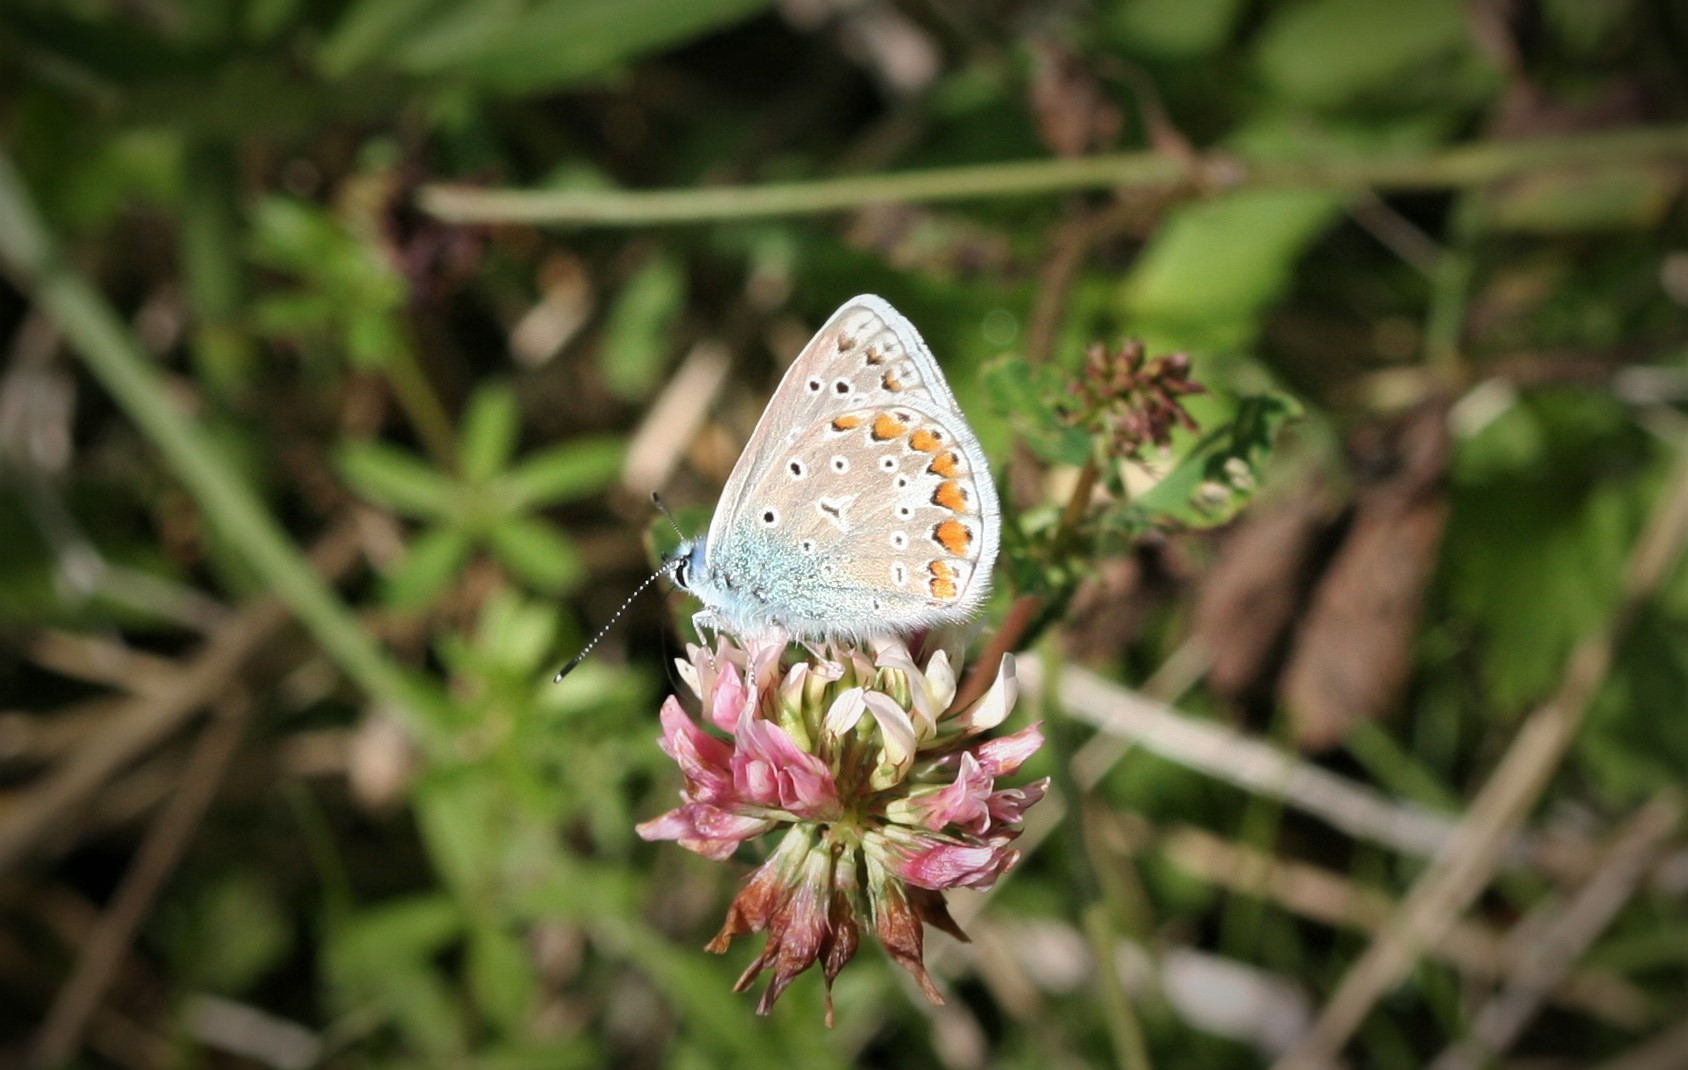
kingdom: Animalia
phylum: Arthropoda
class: Insecta
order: Lepidoptera
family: Lycaenidae
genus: Polyommatus
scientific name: Polyommatus icarus
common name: Common blue
